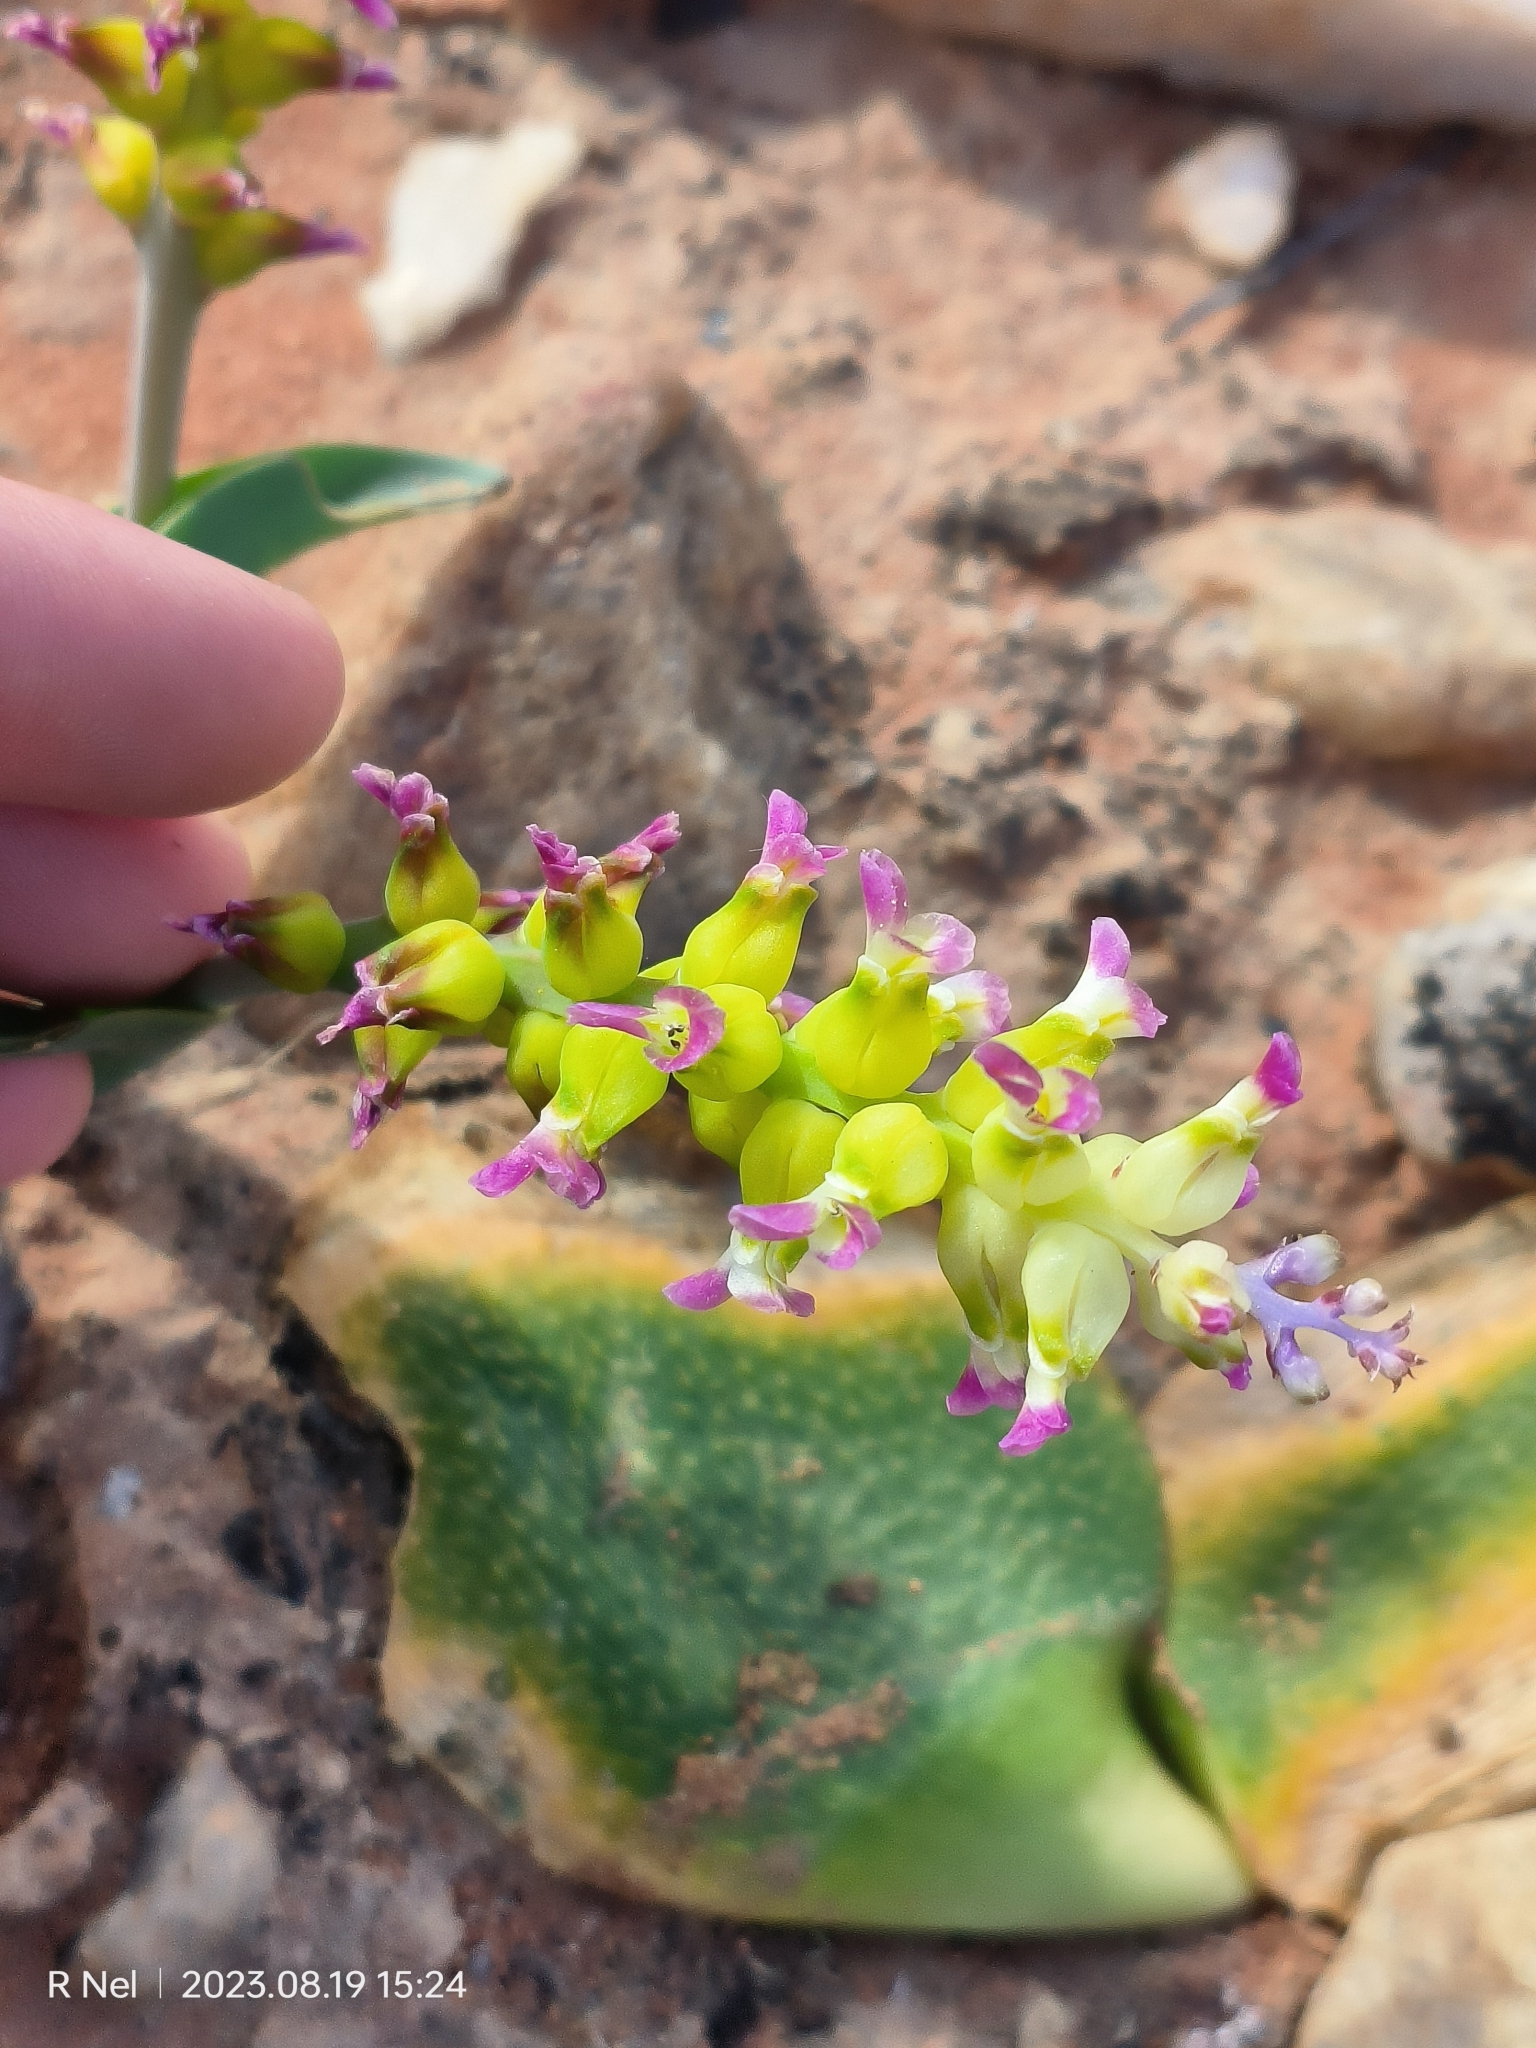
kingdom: Plantae
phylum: Tracheophyta
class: Liliopsida
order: Asparagales
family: Asparagaceae
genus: Lachenalia
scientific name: Lachenalia valeriae
